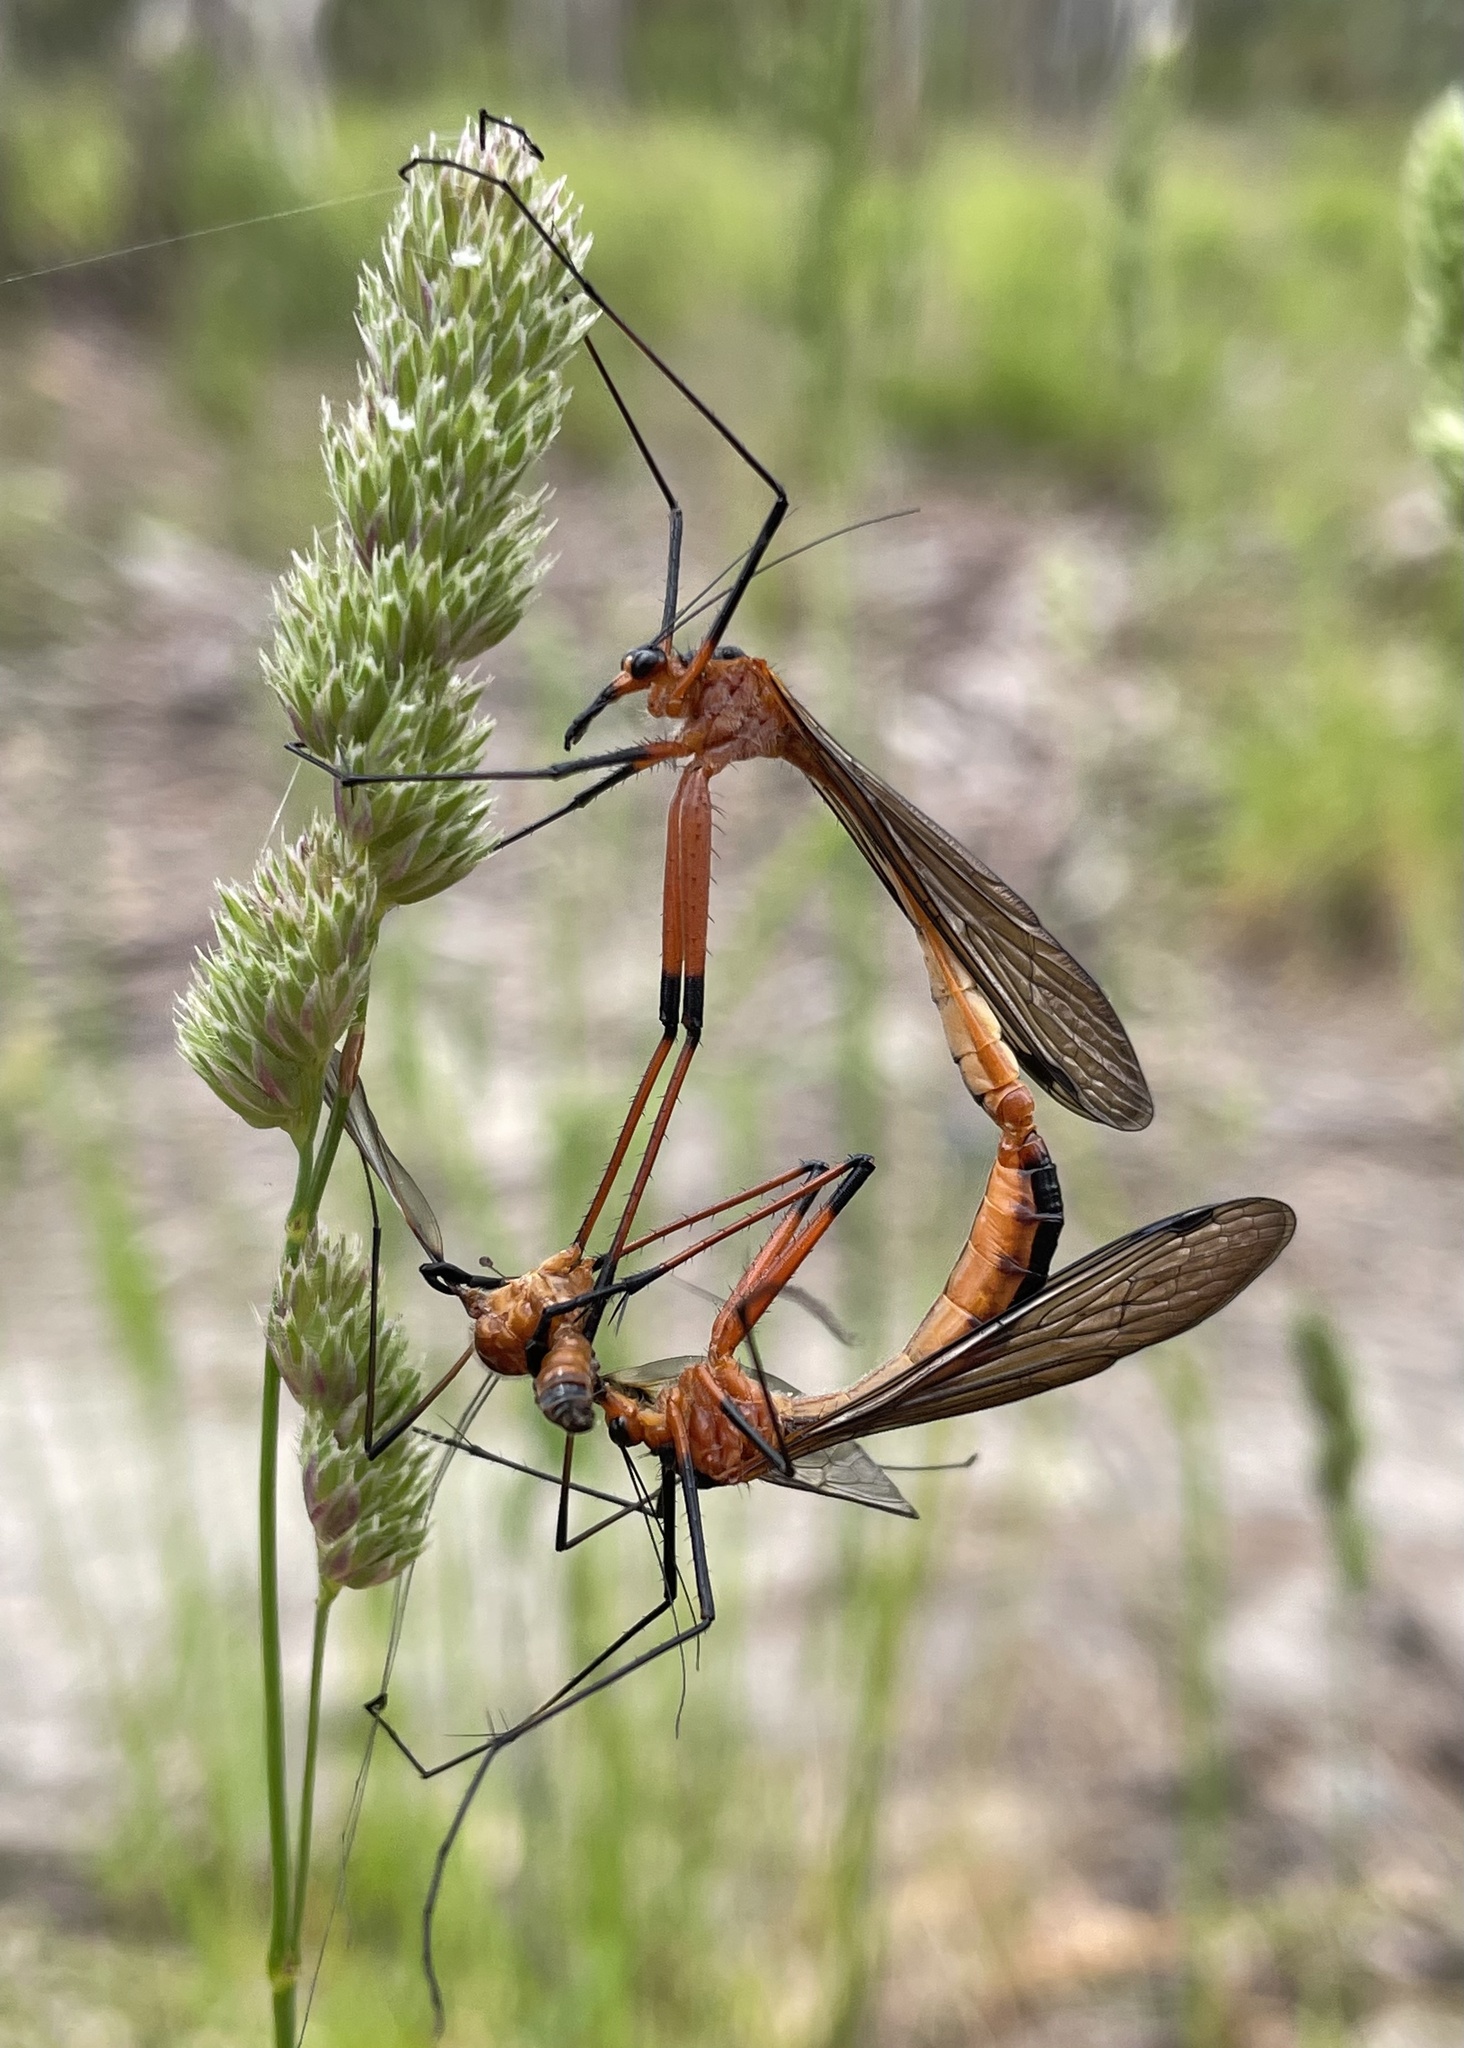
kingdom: Animalia
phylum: Arthropoda
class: Insecta
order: Mecoptera
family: Bittacidae
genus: Harpobittacus
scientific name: Harpobittacus australis
